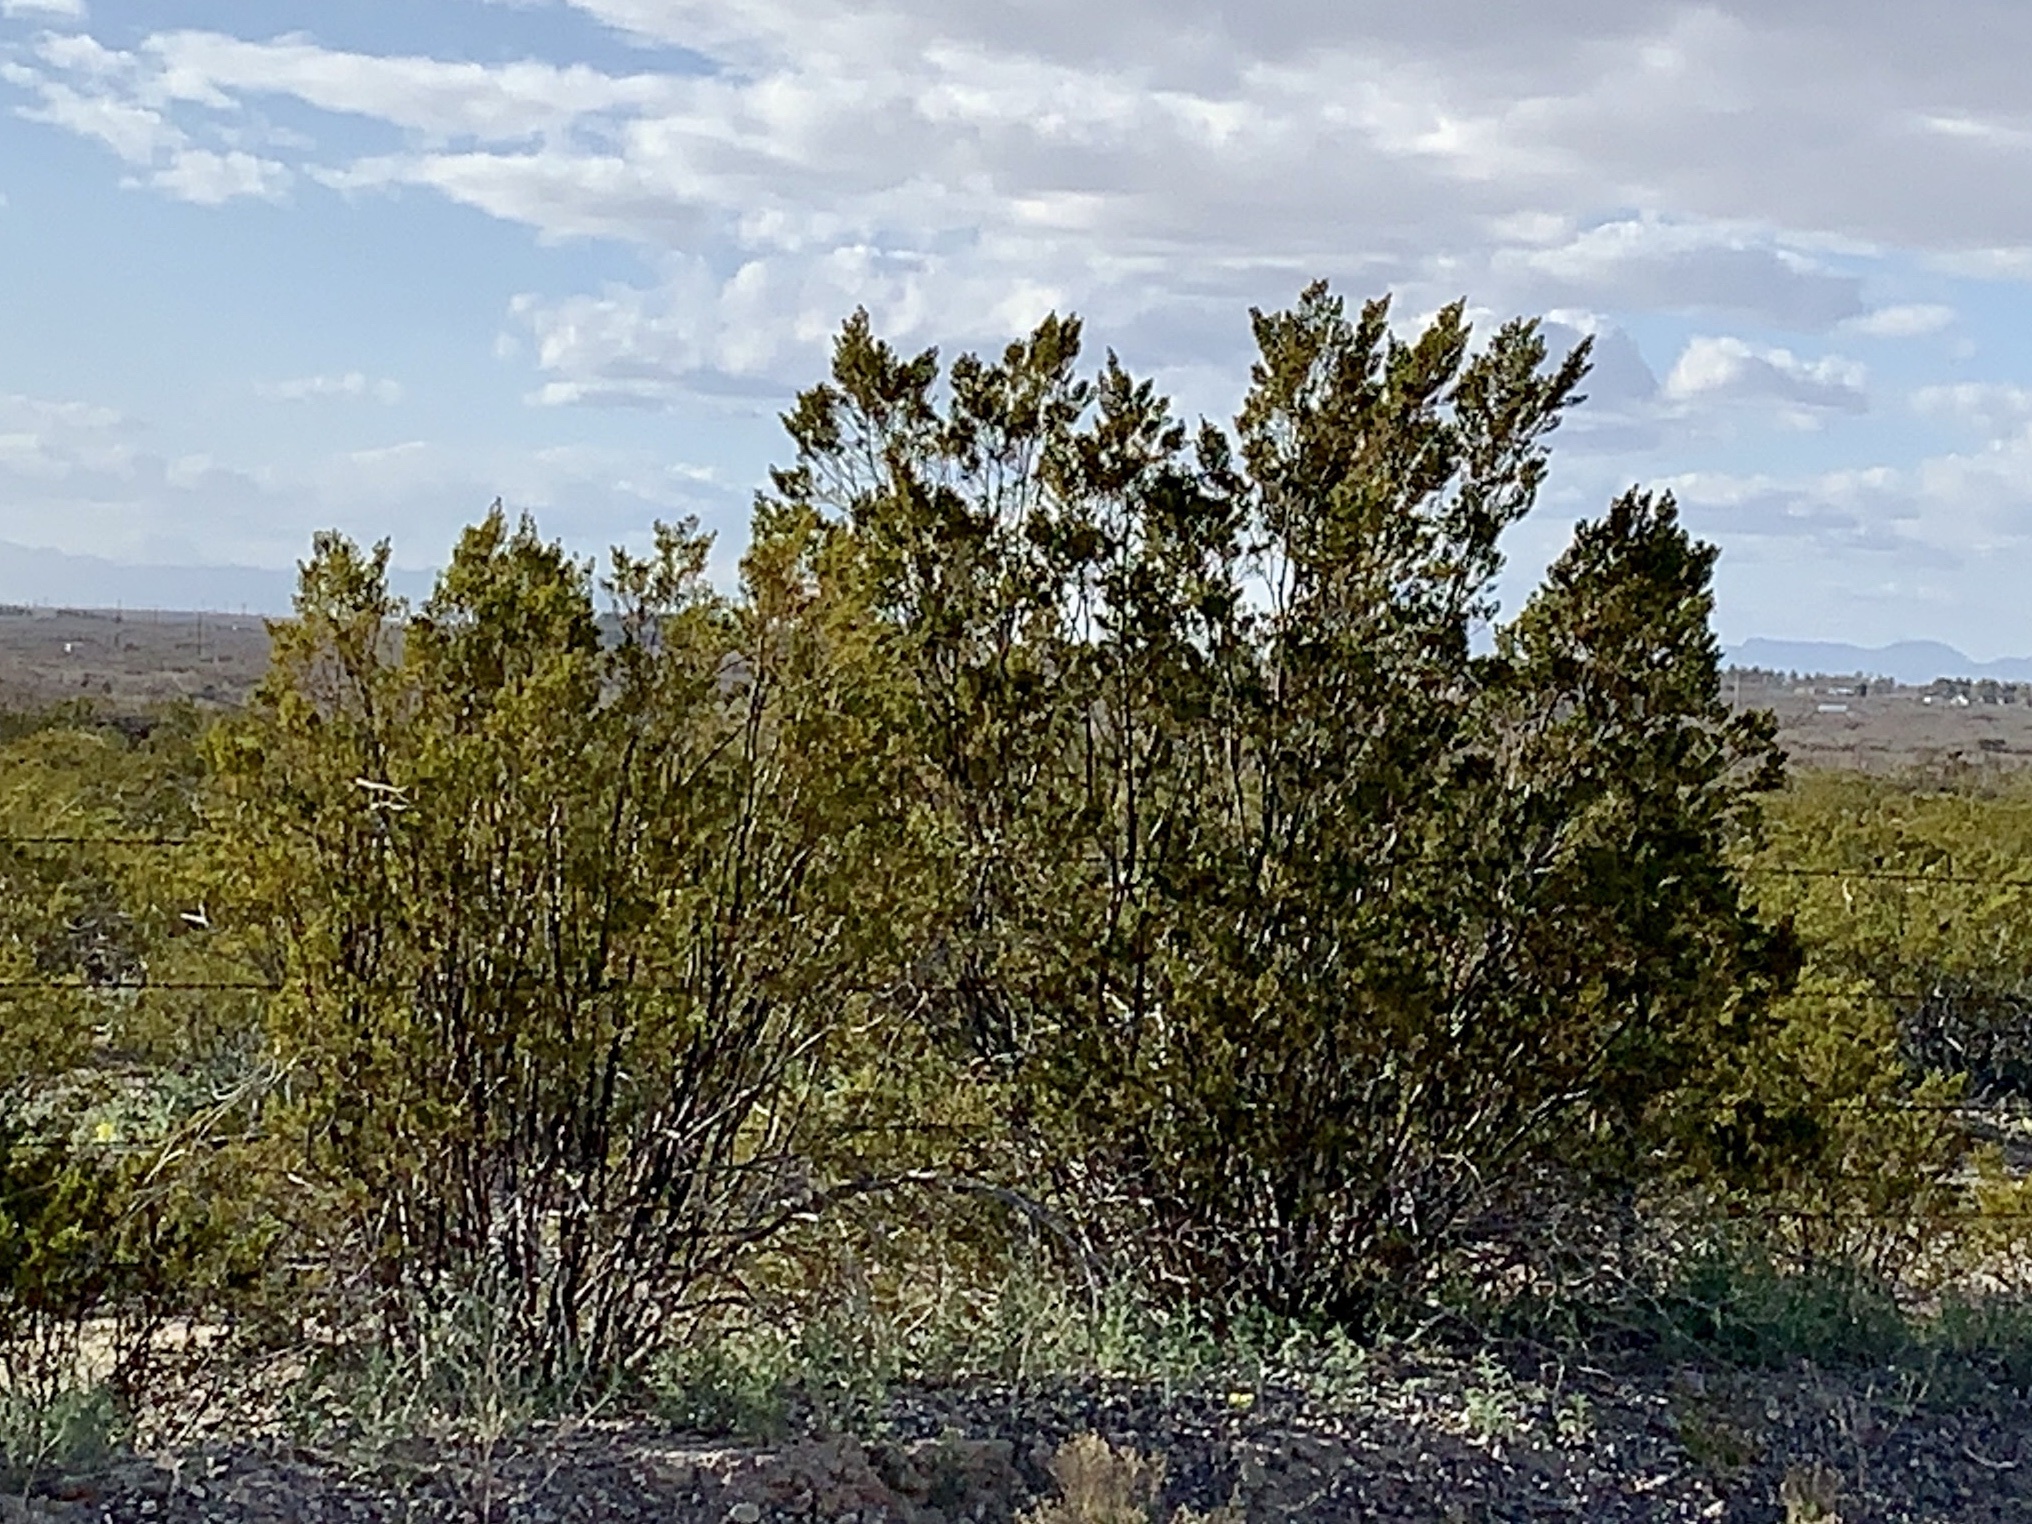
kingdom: Plantae
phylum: Tracheophyta
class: Magnoliopsida
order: Zygophyllales
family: Zygophyllaceae
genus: Larrea
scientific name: Larrea tridentata
